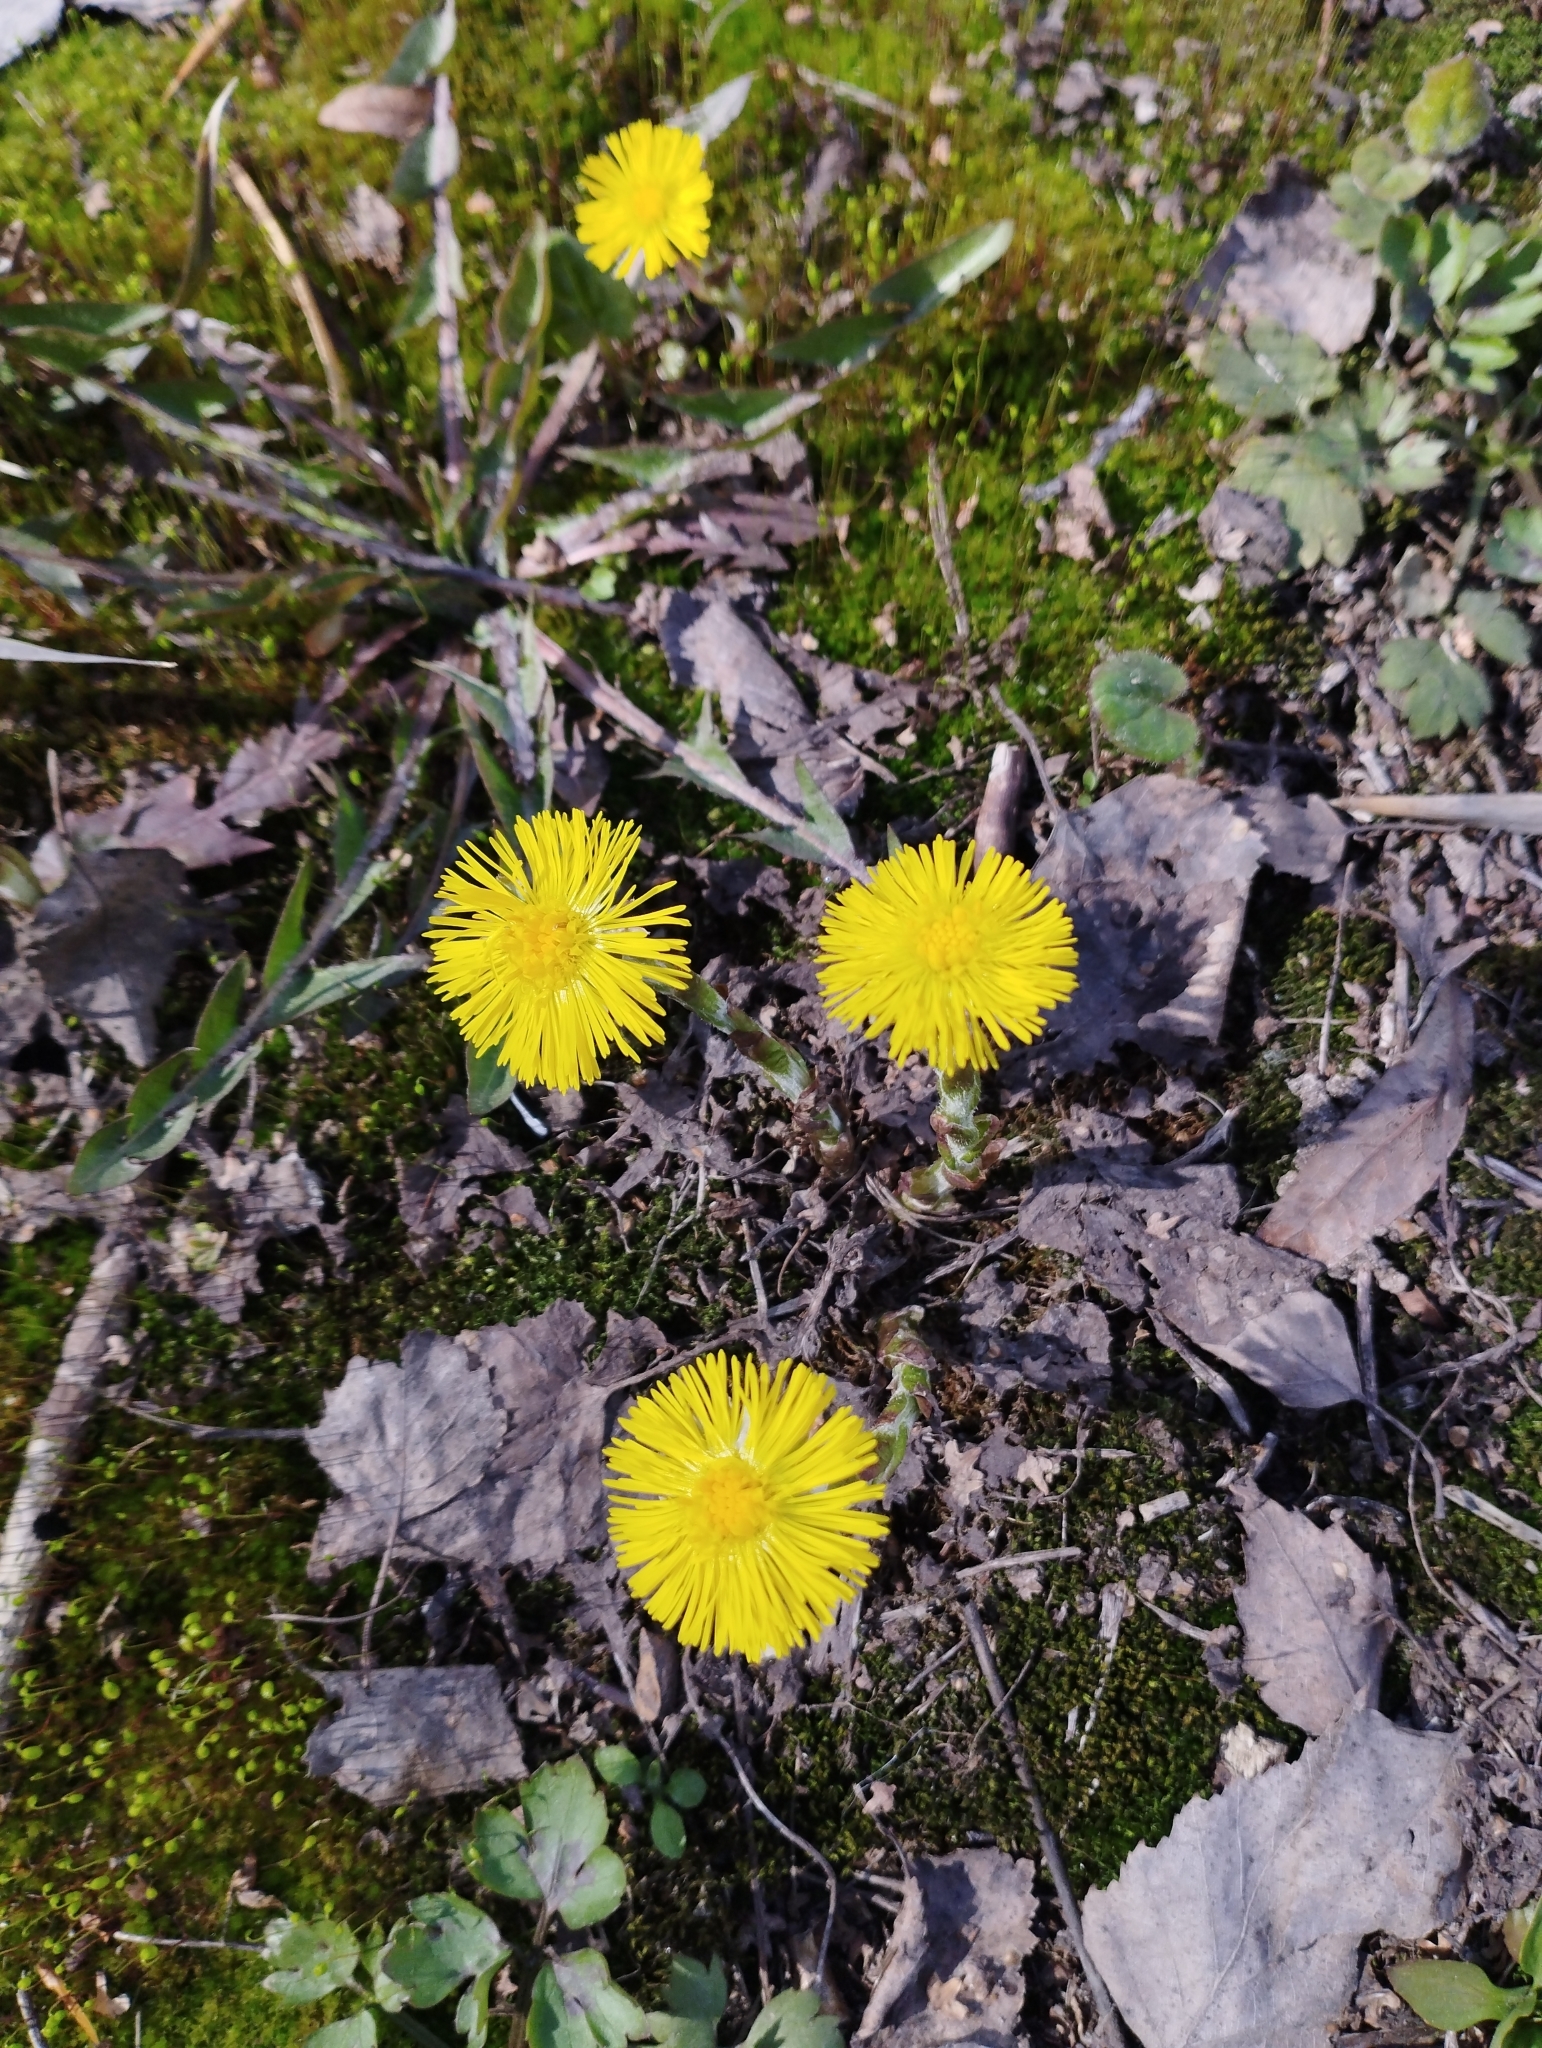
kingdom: Plantae
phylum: Tracheophyta
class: Magnoliopsida
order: Asterales
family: Asteraceae
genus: Tussilago
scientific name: Tussilago farfara
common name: Coltsfoot
